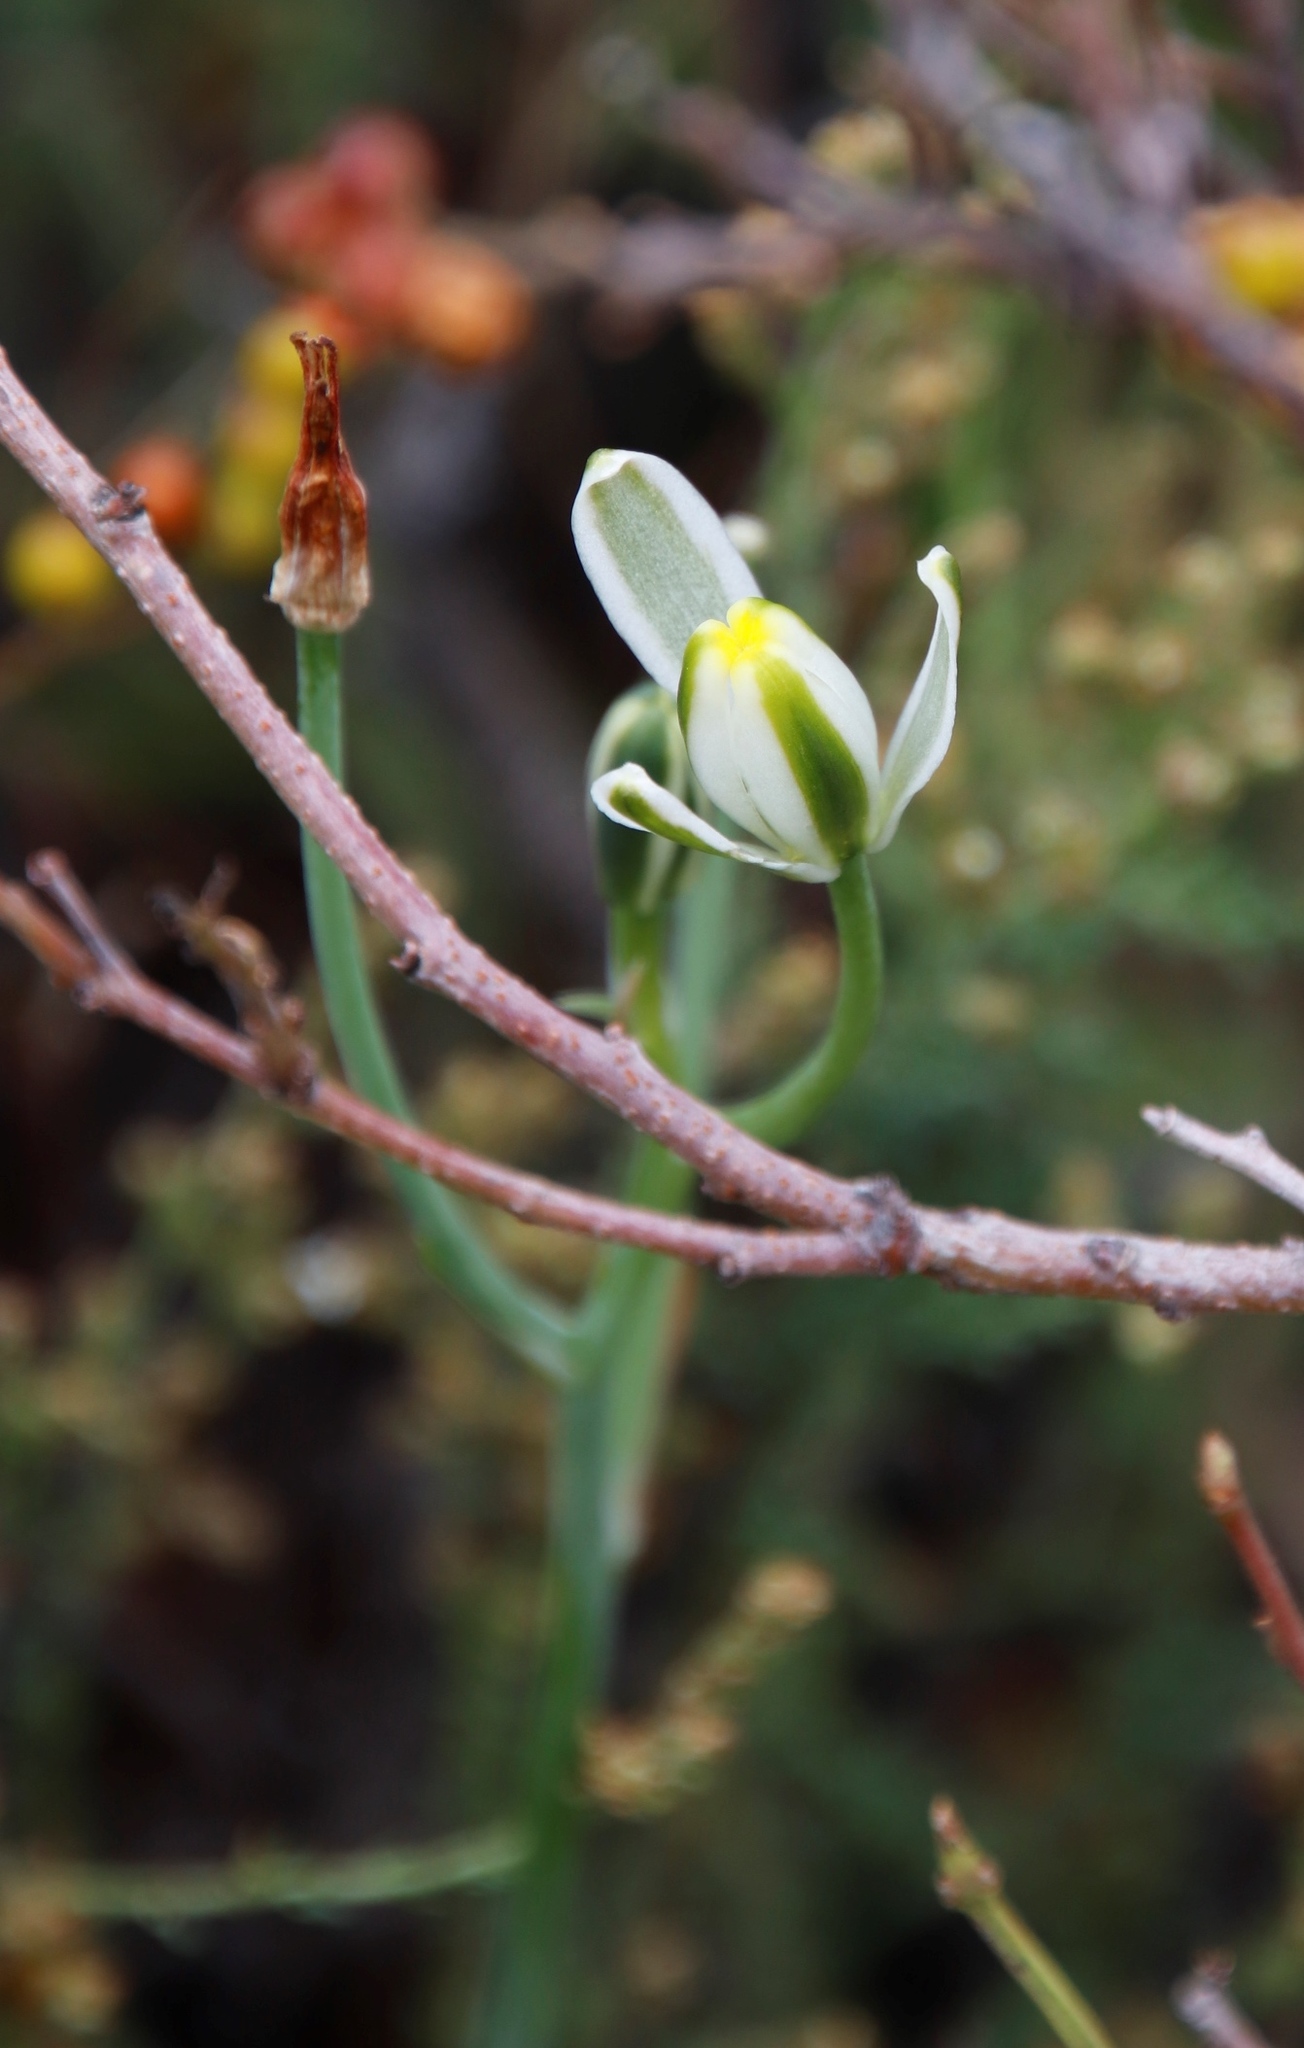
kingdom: Plantae
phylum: Tracheophyta
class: Liliopsida
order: Asparagales
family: Asparagaceae
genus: Albuca
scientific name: Albuca humilis
